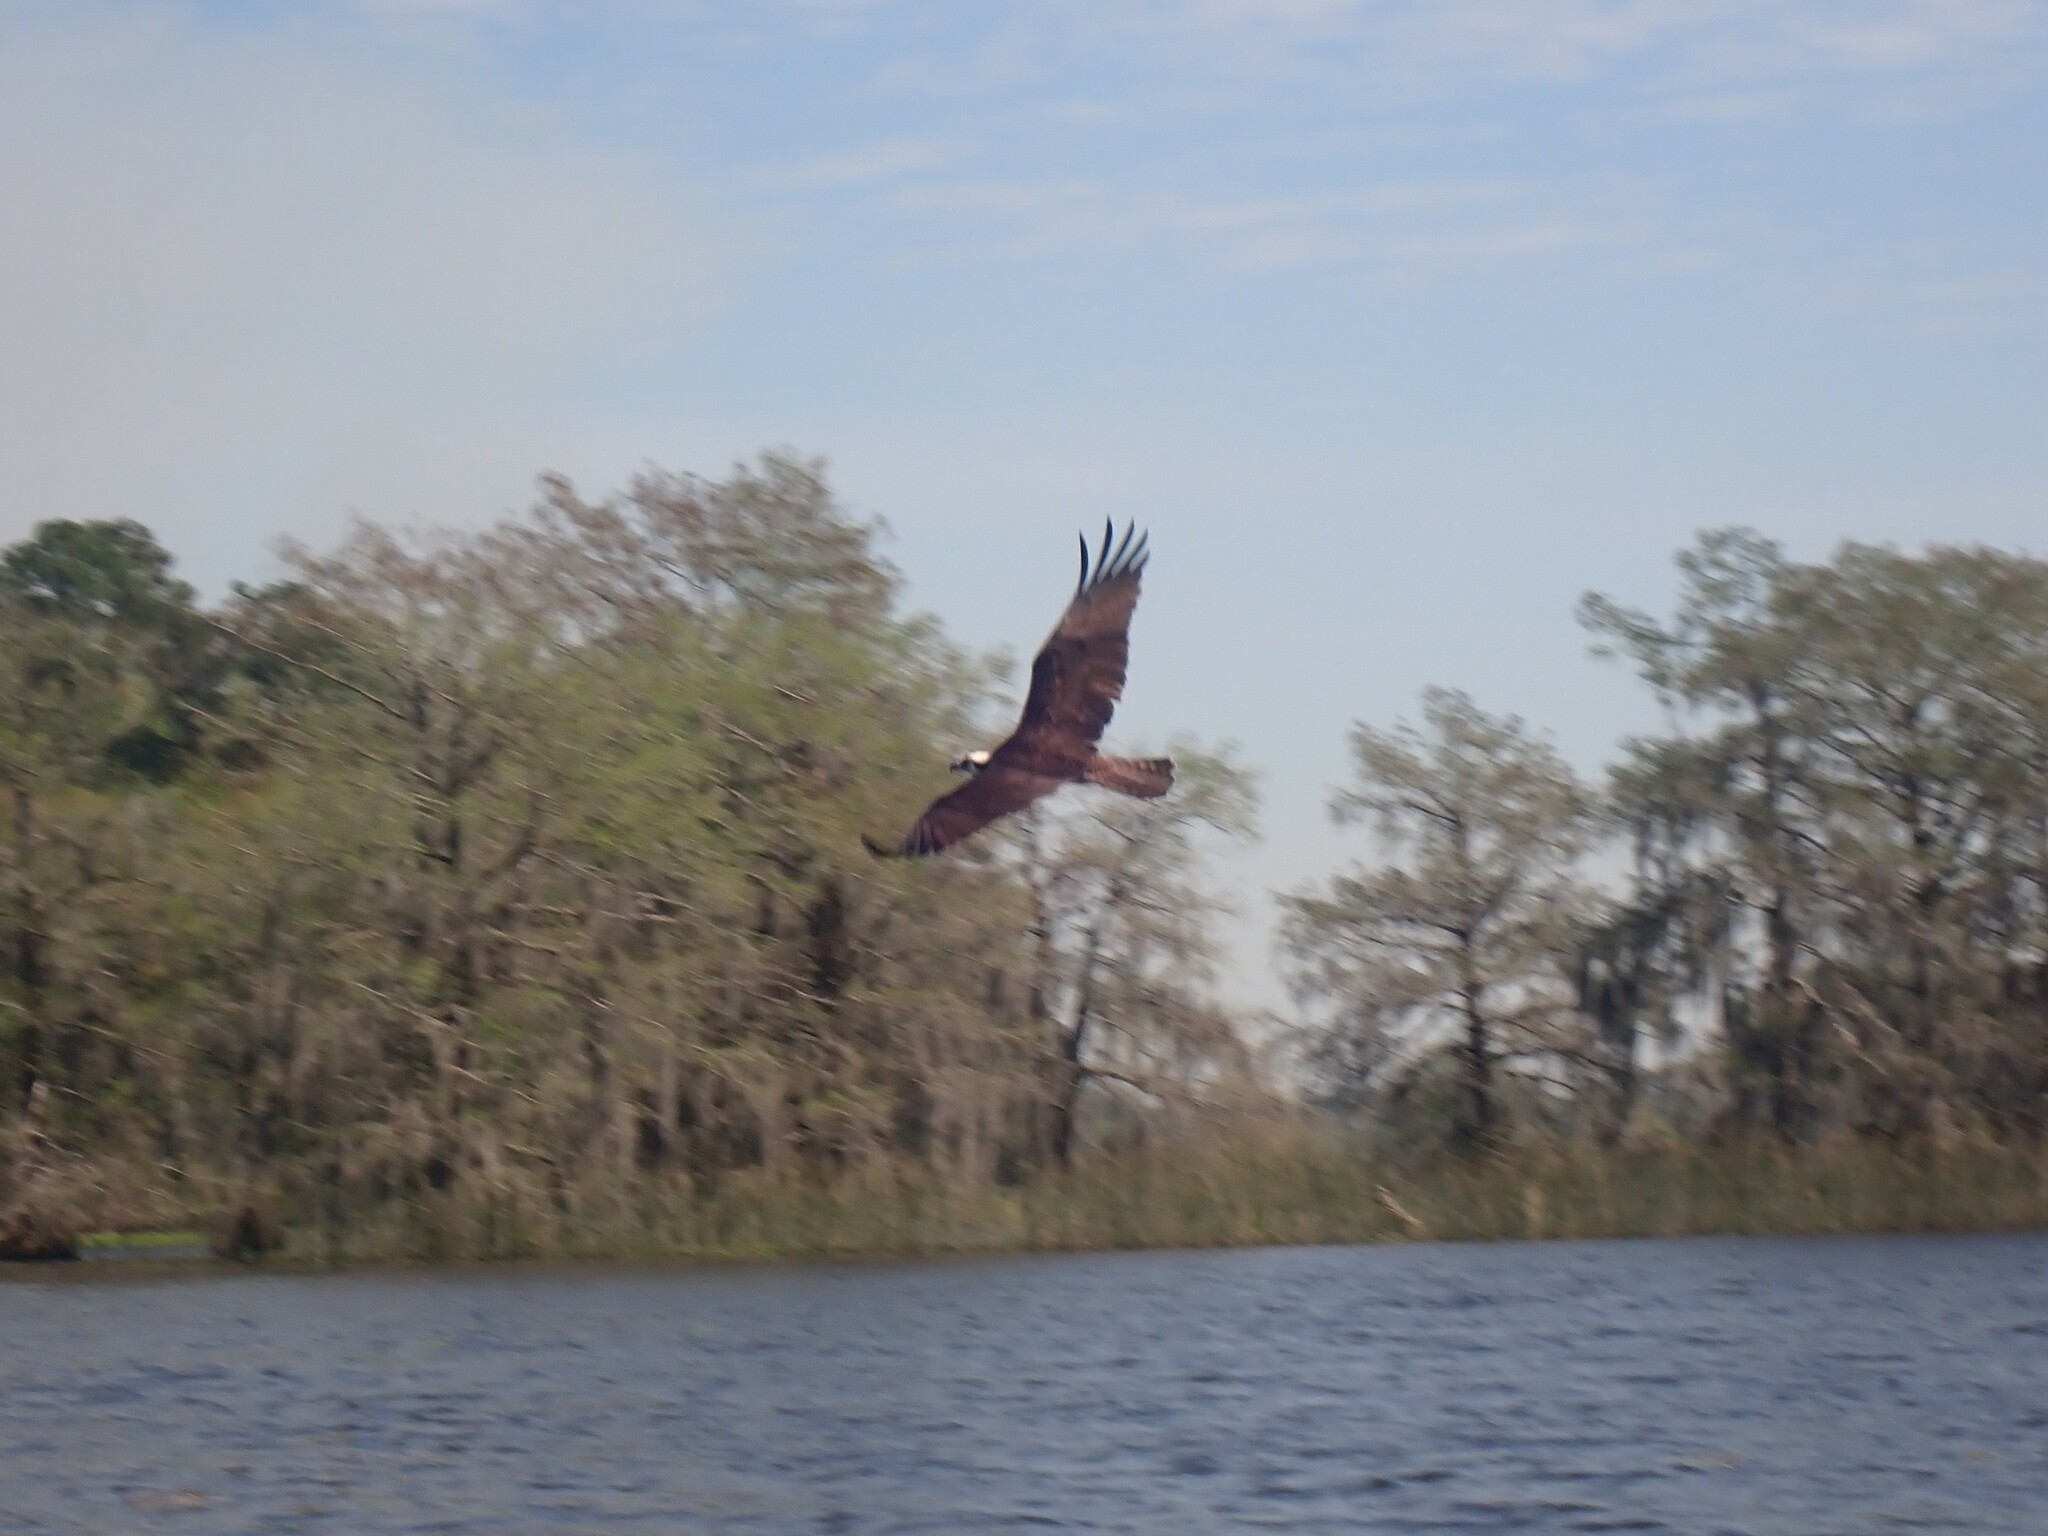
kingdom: Animalia
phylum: Chordata
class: Aves
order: Accipitriformes
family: Pandionidae
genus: Pandion
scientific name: Pandion haliaetus
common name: Osprey
